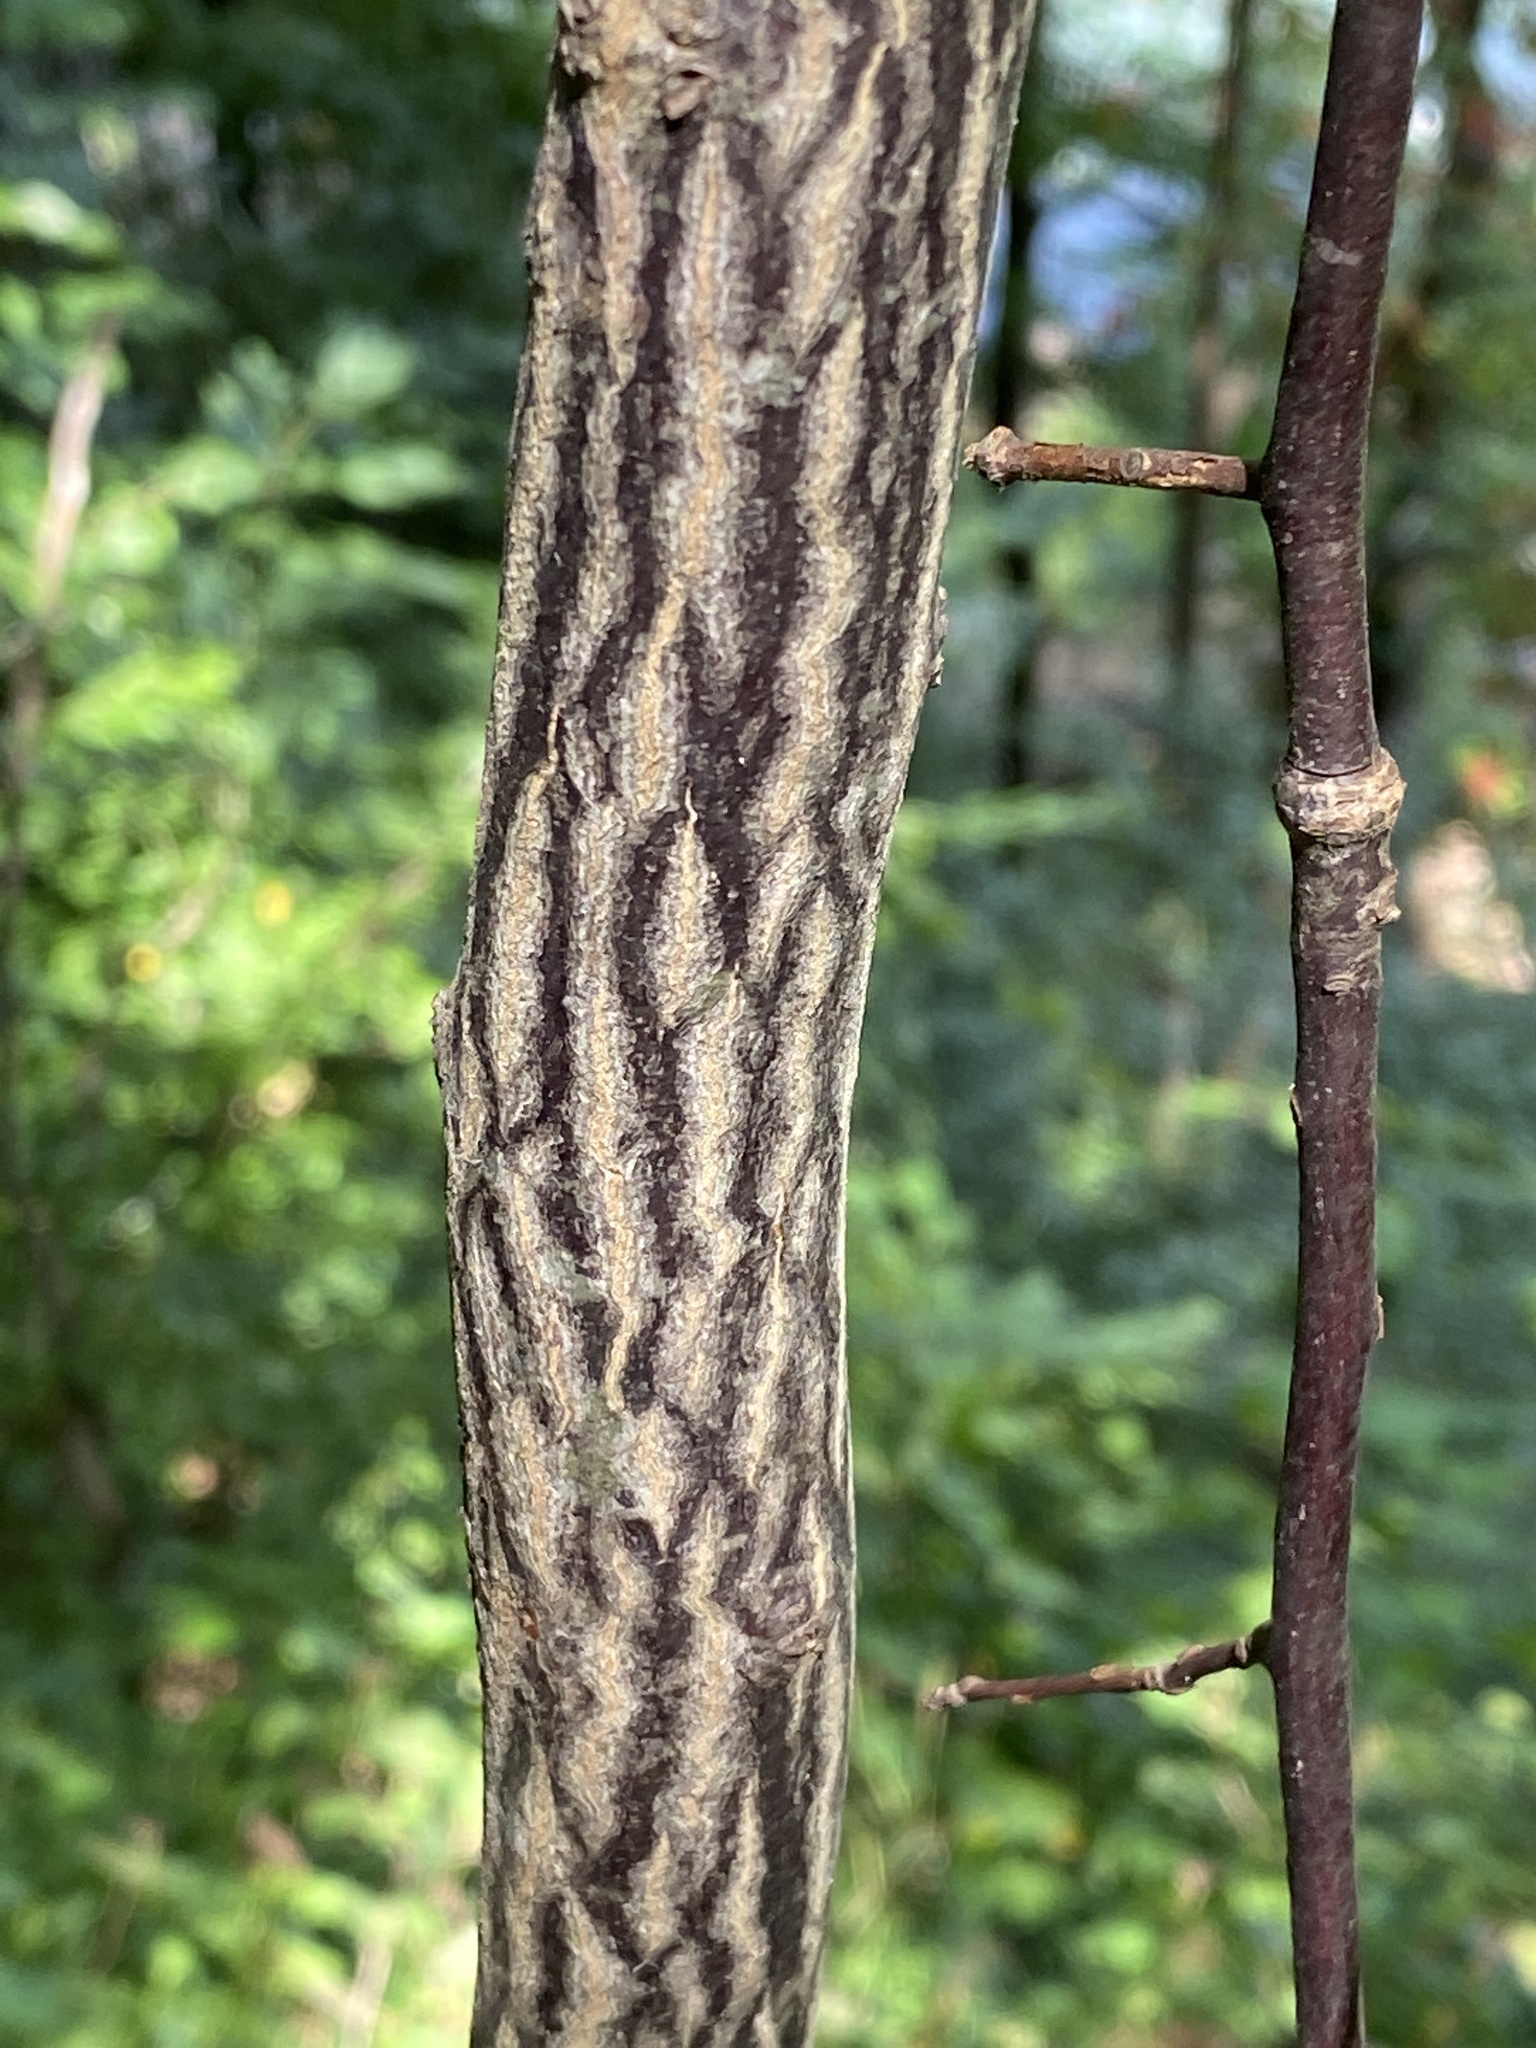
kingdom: Plantae
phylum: Tracheophyta
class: Magnoliopsida
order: Ericales
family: Styracaceae
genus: Halesia
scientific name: Halesia tetraptera
